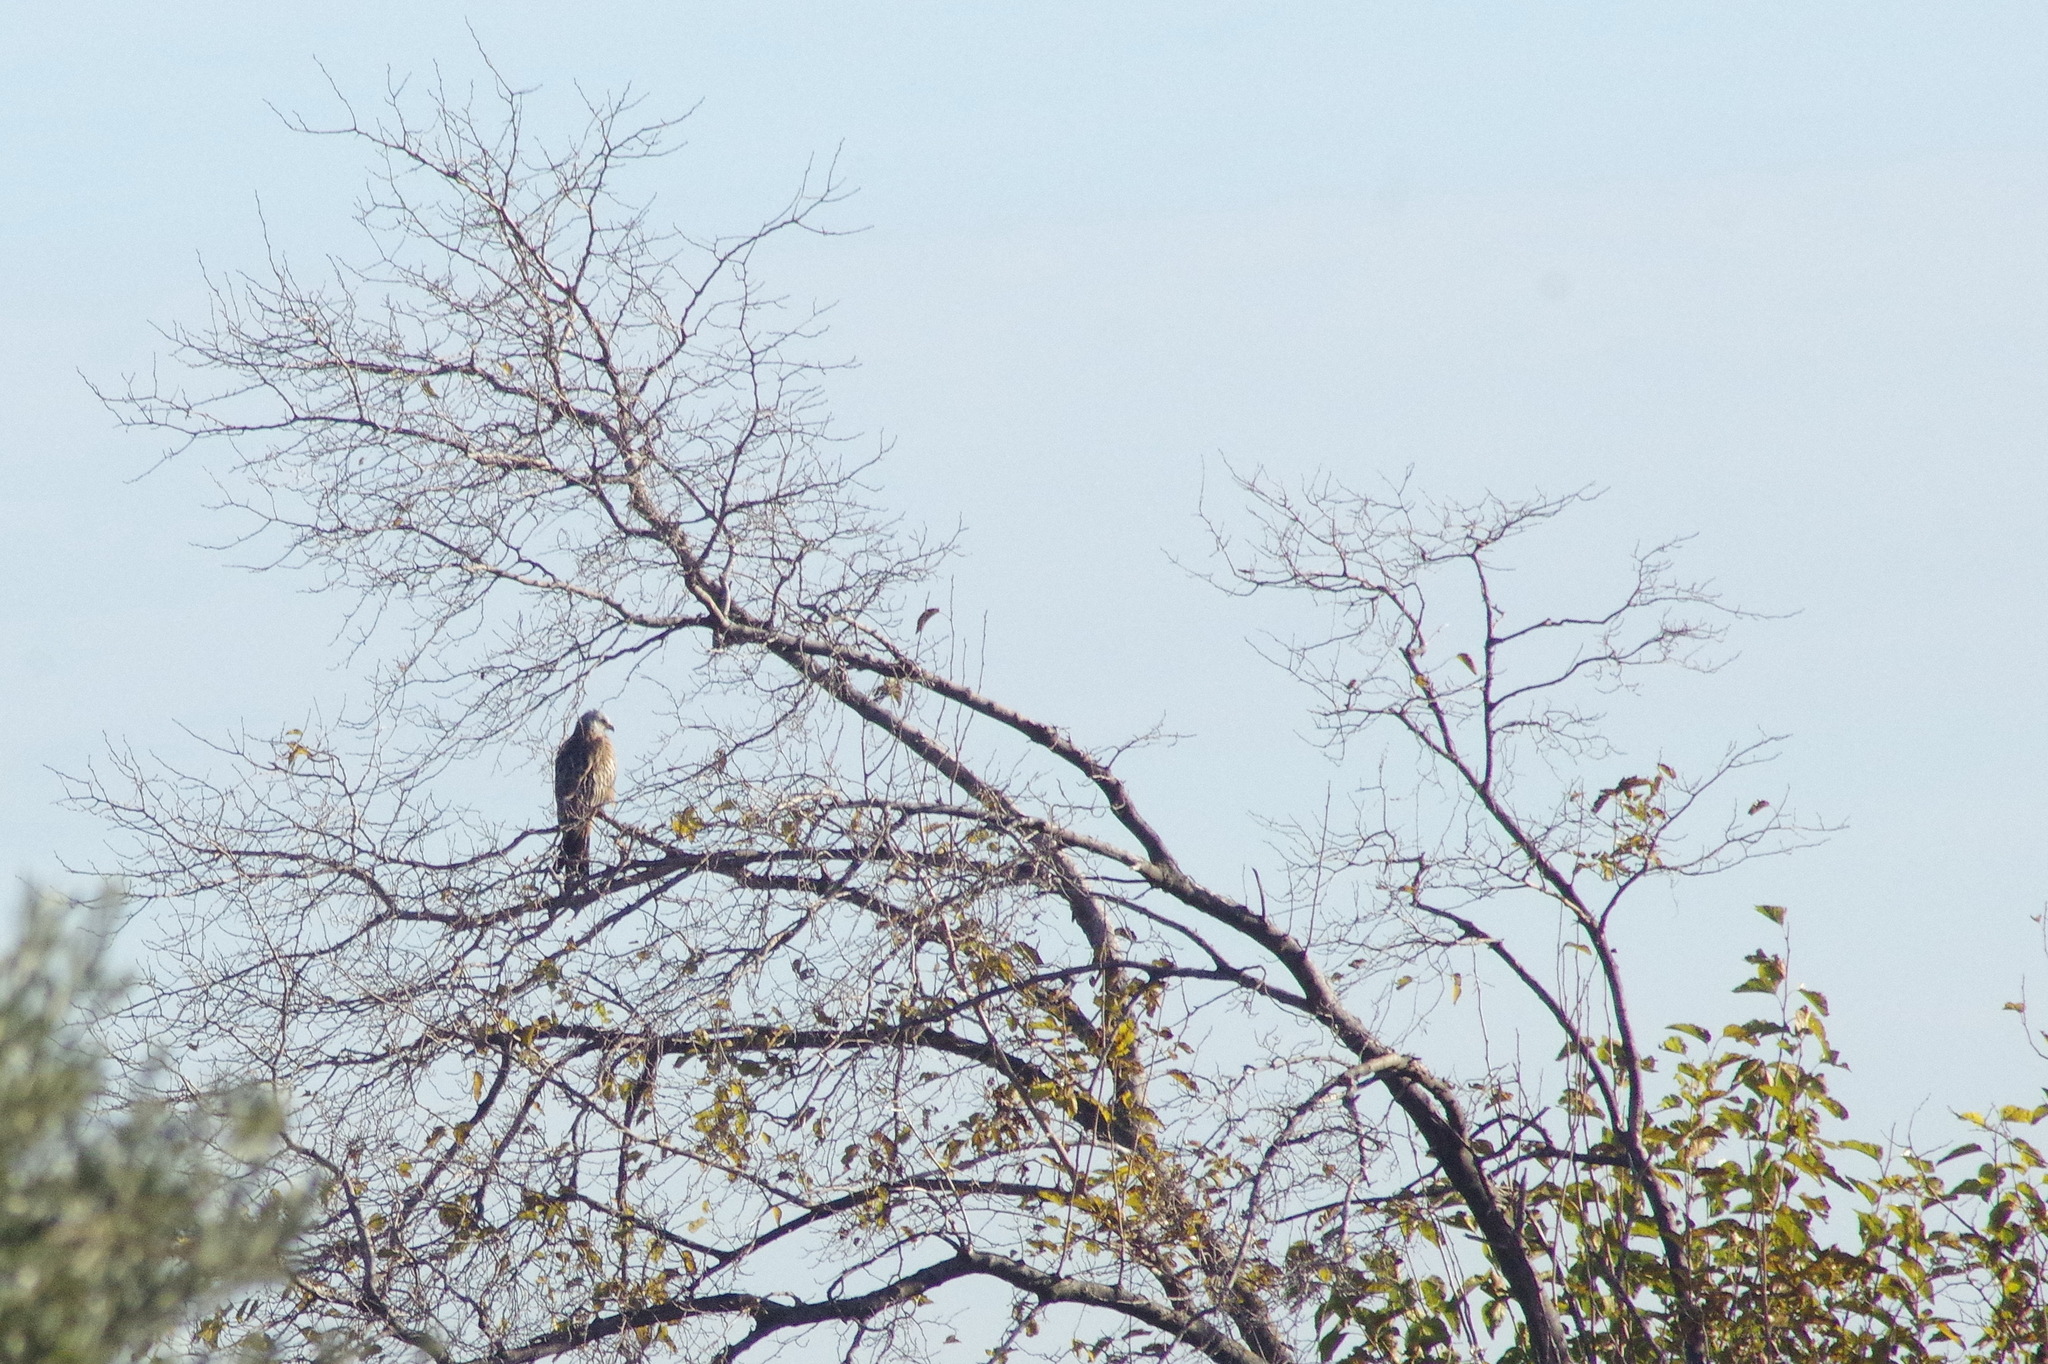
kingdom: Animalia
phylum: Chordata
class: Aves
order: Accipitriformes
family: Accipitridae
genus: Milvus
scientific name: Milvus milvus
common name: Red kite
